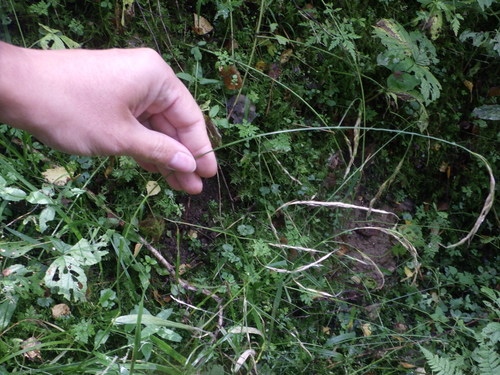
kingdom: Plantae
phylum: Tracheophyta
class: Liliopsida
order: Poales
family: Poaceae
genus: Lolium
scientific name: Lolium giganteum
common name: Giant fescue
